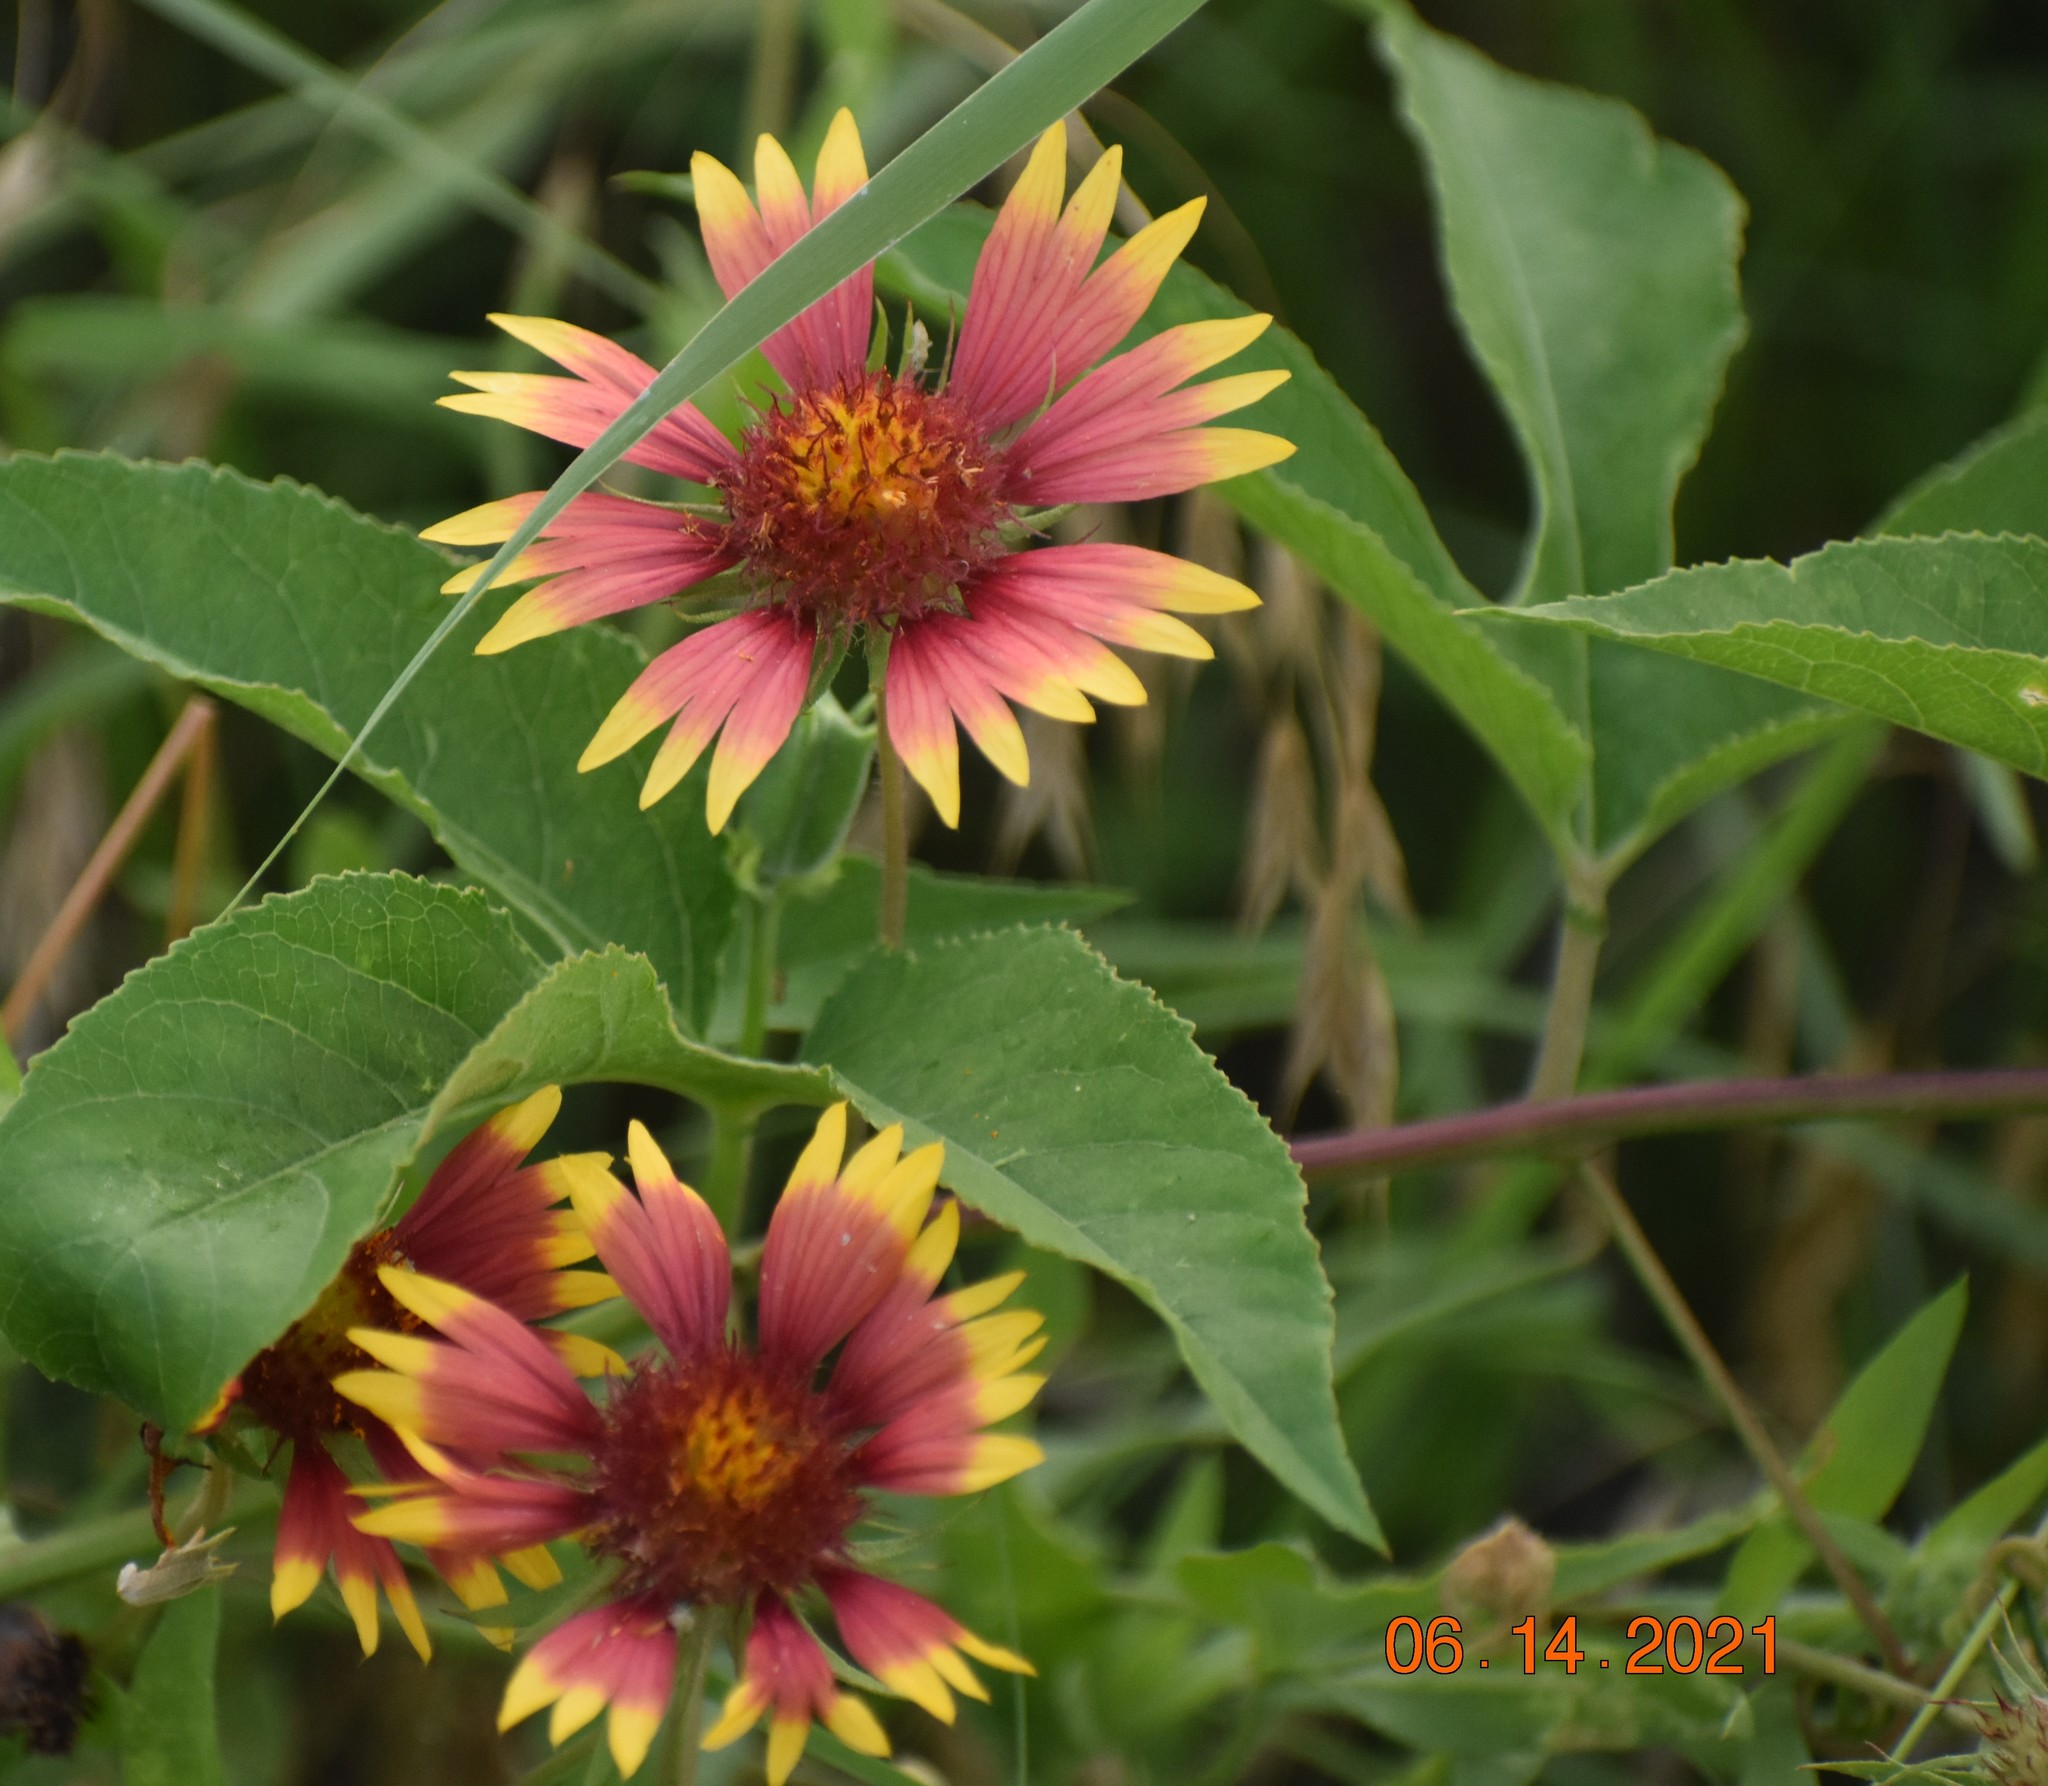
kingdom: Plantae
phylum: Tracheophyta
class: Magnoliopsida
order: Asterales
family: Asteraceae
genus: Gaillardia
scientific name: Gaillardia pulchella
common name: Firewheel
